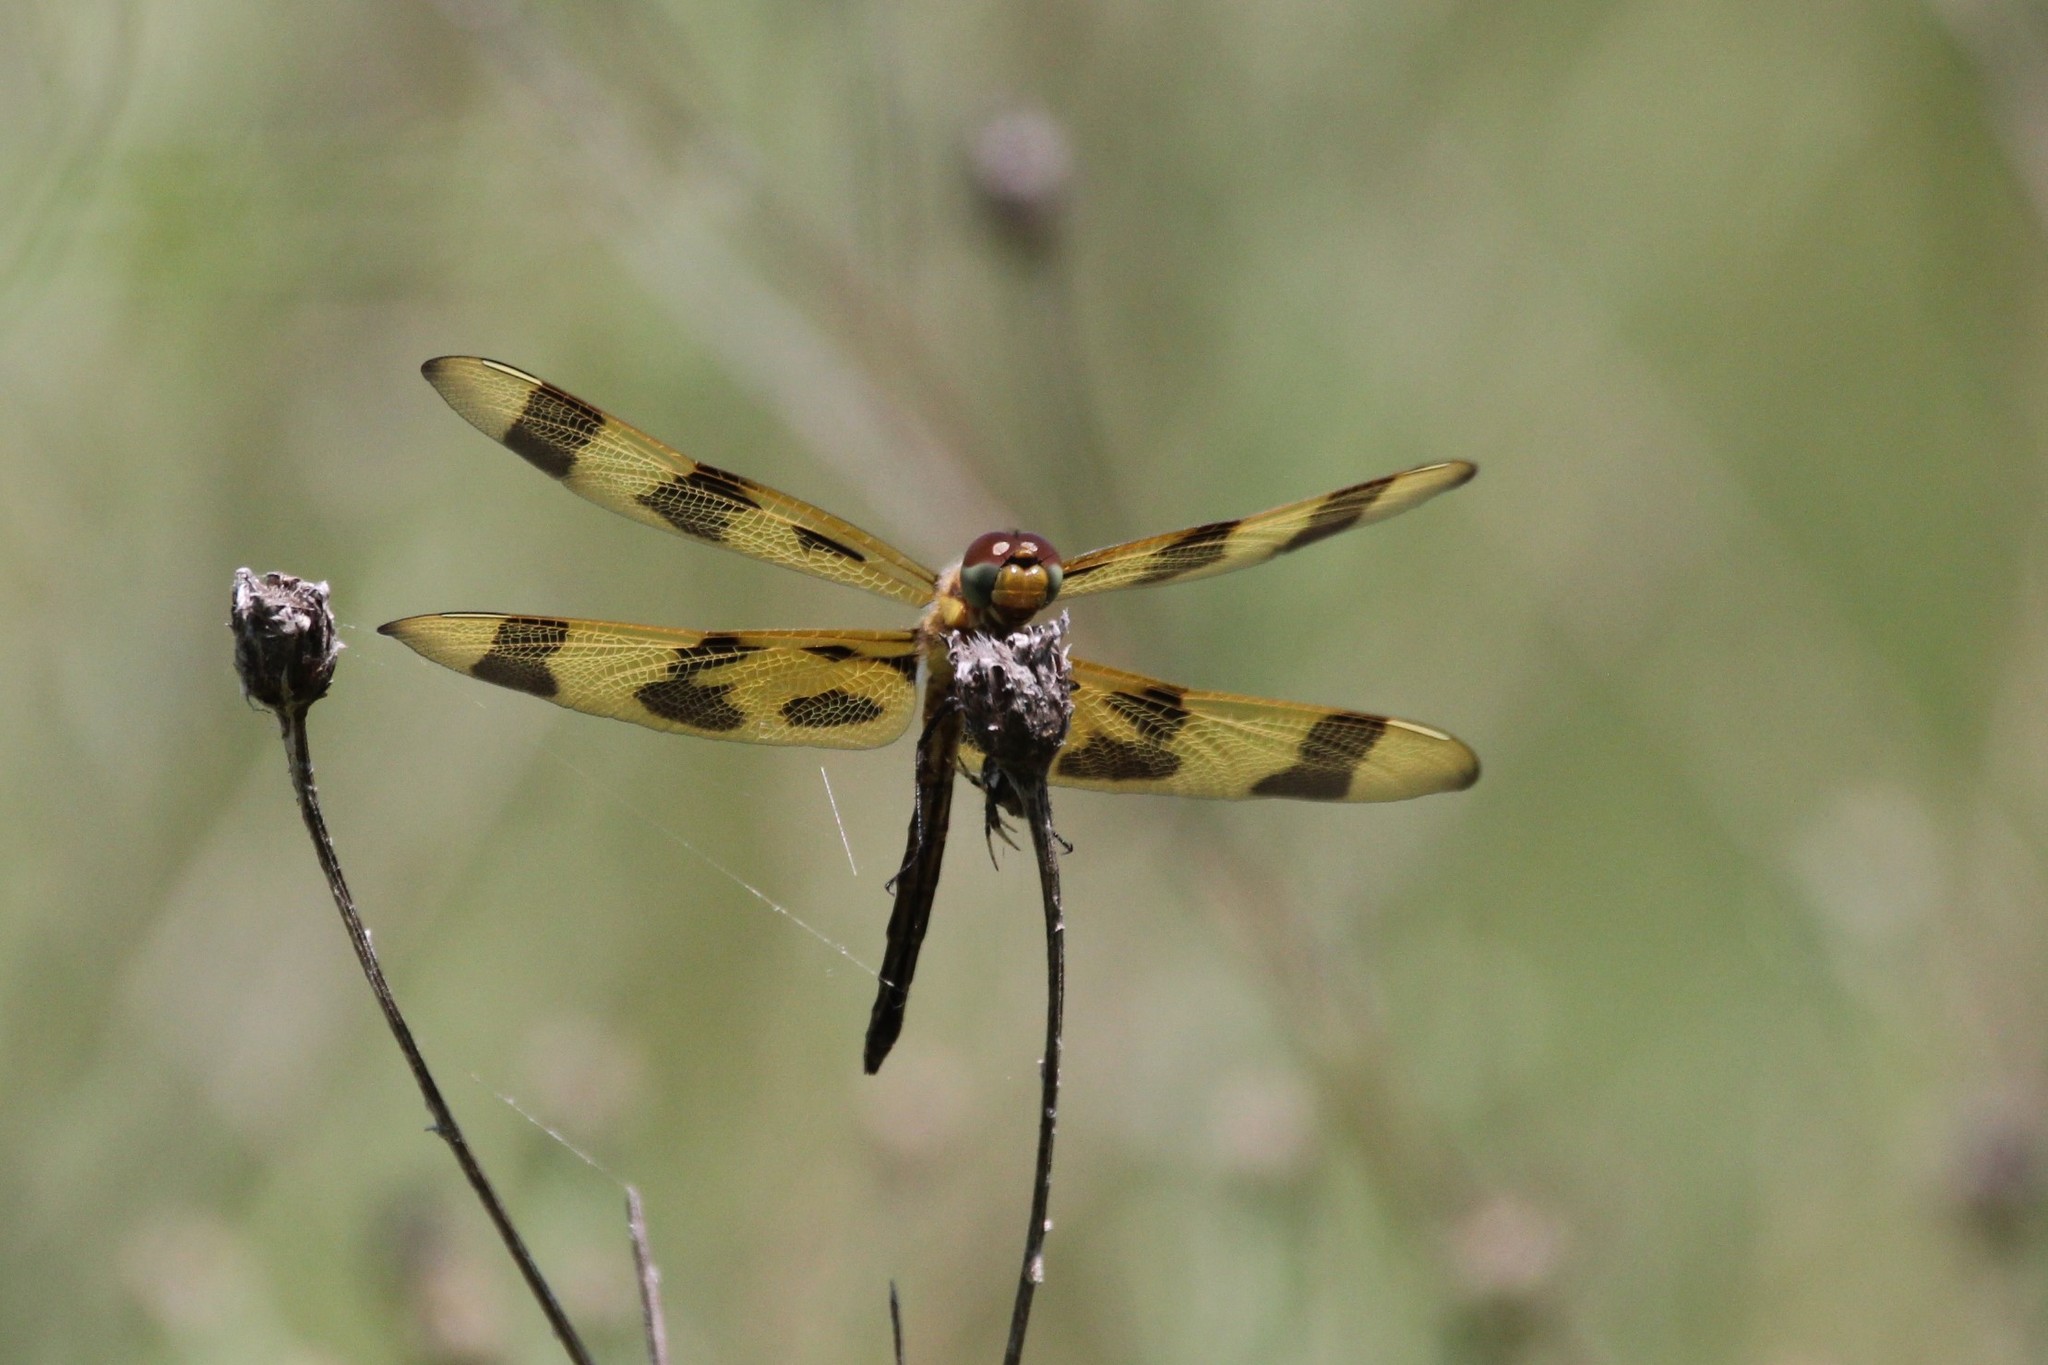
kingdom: Animalia
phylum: Arthropoda
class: Insecta
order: Odonata
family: Libellulidae
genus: Celithemis
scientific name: Celithemis eponina
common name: Halloween pennant
